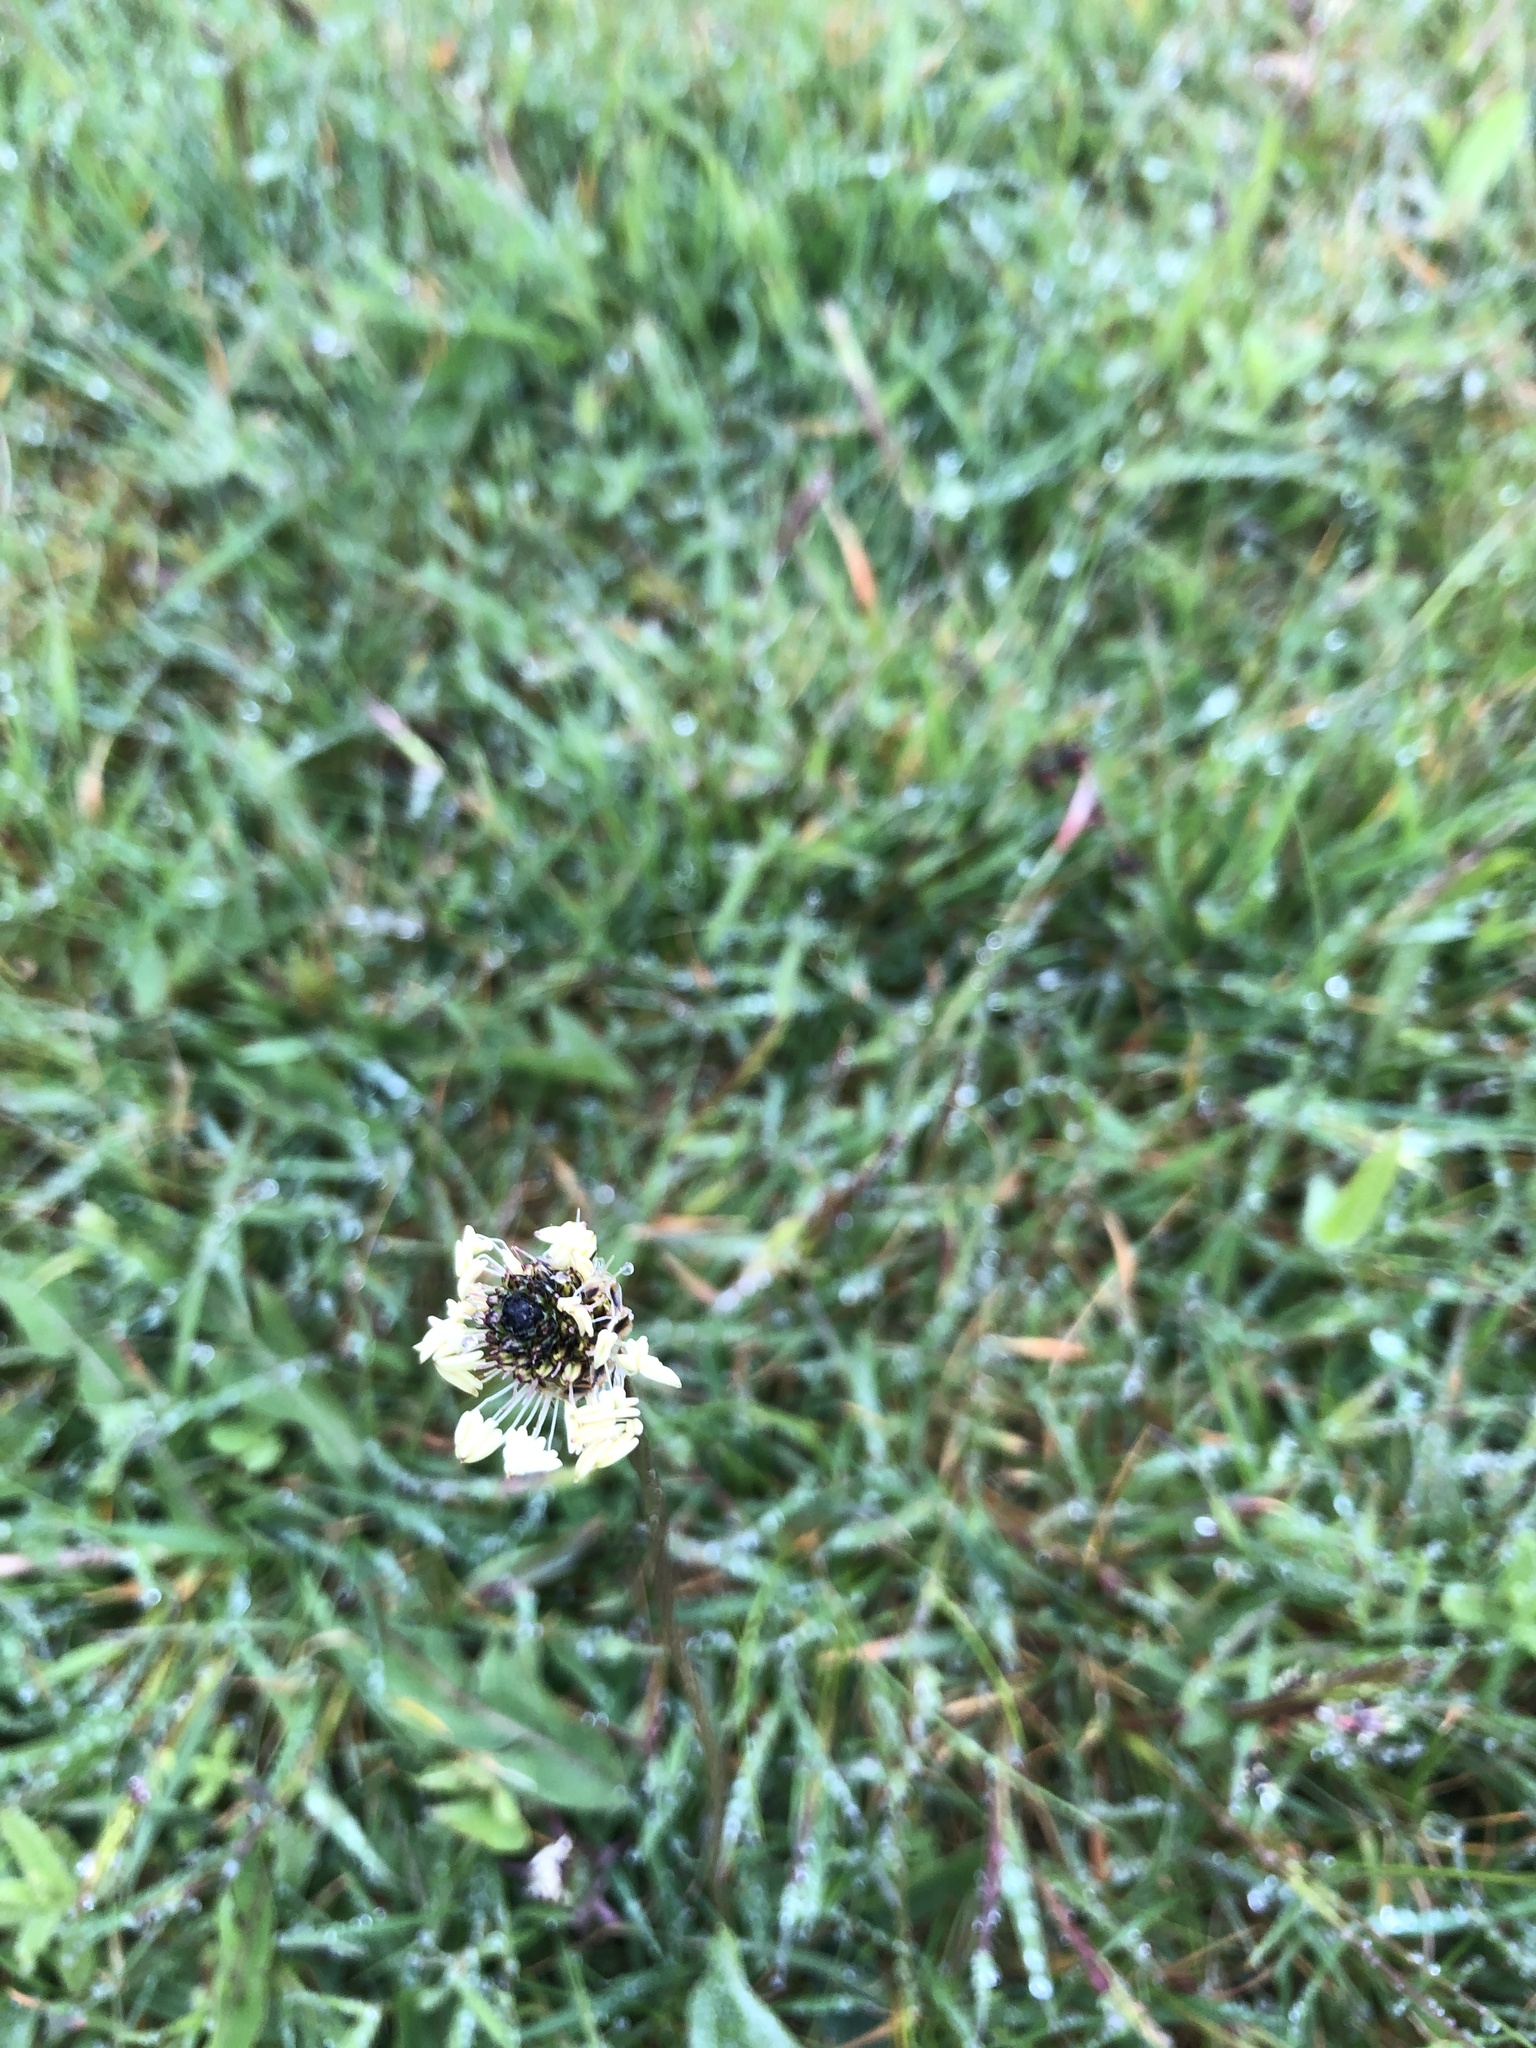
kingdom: Plantae
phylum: Tracheophyta
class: Magnoliopsida
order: Lamiales
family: Plantaginaceae
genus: Plantago
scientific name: Plantago lanceolata
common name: Ribwort plantain
